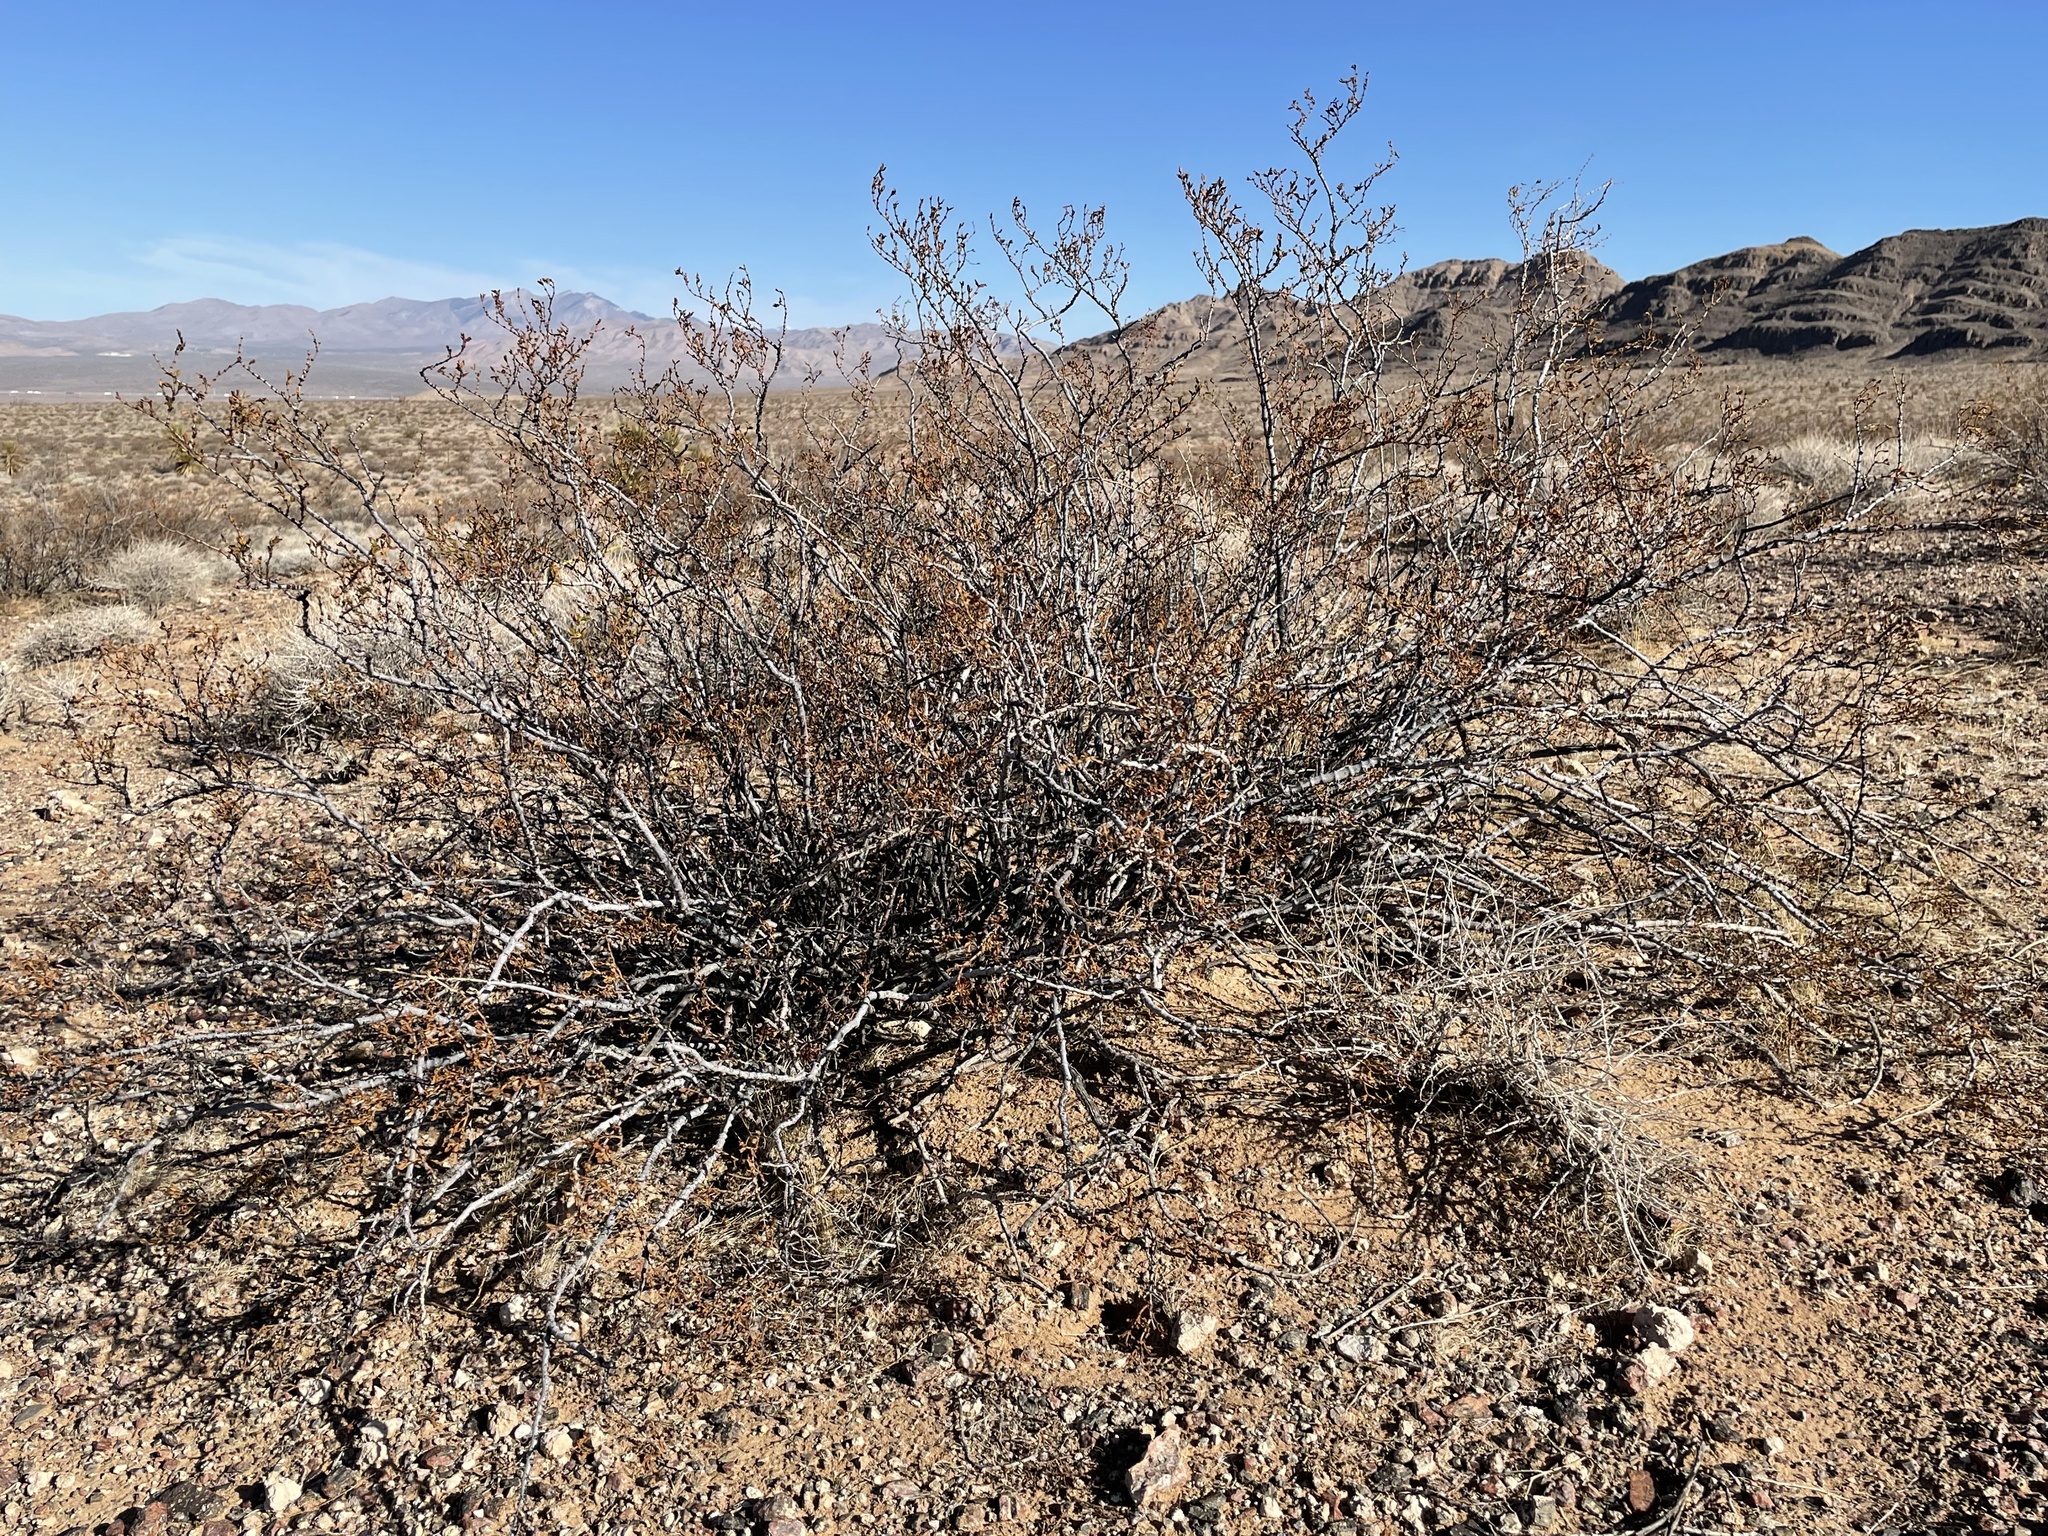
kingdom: Plantae
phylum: Tracheophyta
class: Magnoliopsida
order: Zygophyllales
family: Zygophyllaceae
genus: Larrea
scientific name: Larrea tridentata
